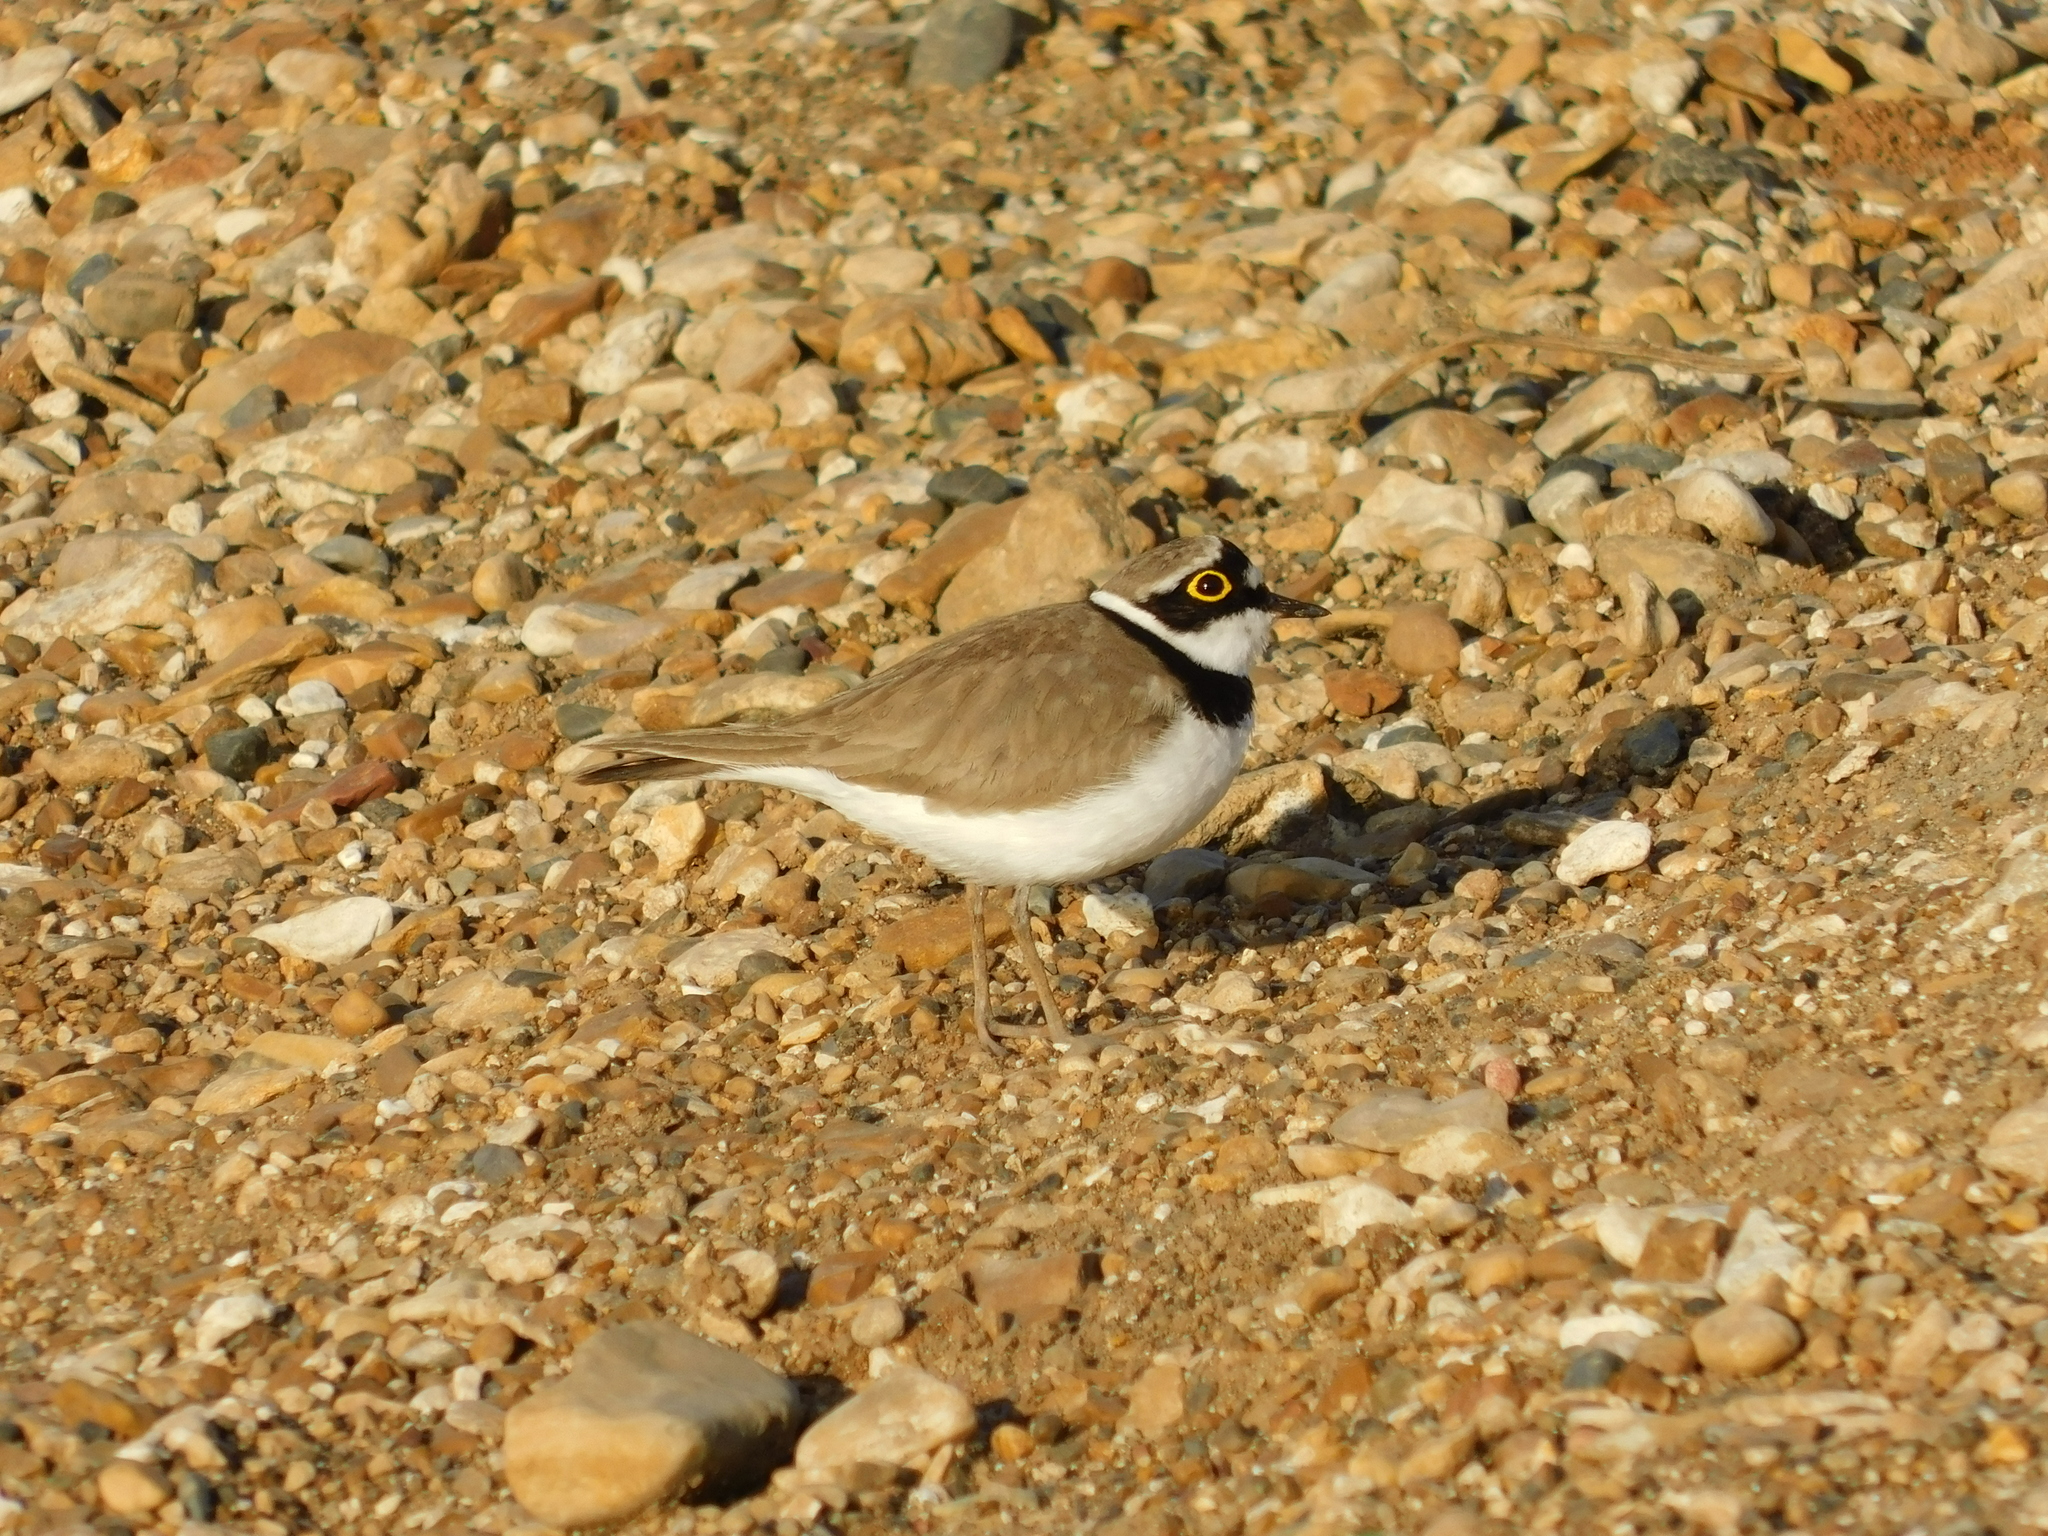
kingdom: Animalia
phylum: Chordata
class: Aves
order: Charadriiformes
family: Charadriidae
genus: Charadrius
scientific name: Charadrius dubius
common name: Little ringed plover
